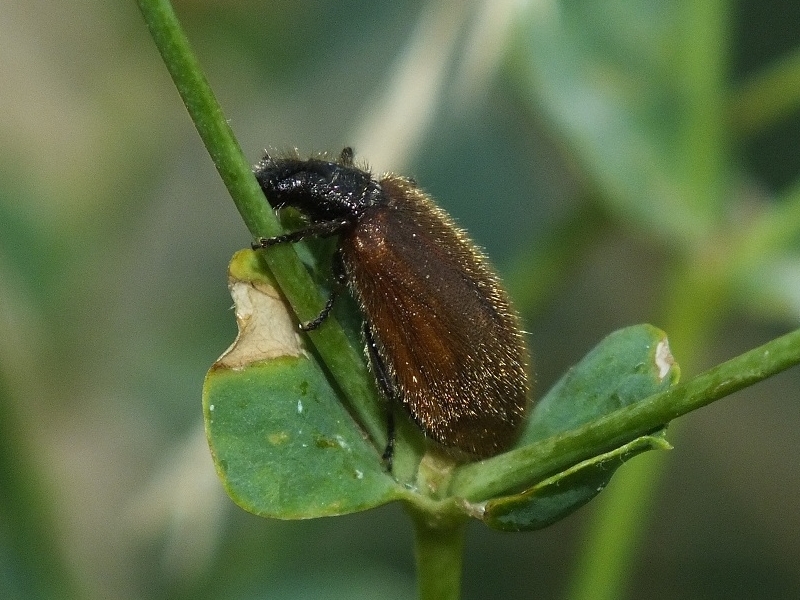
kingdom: Animalia
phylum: Arthropoda
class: Insecta
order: Coleoptera
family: Tenebrionidae
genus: Lagria
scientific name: Lagria hirta
